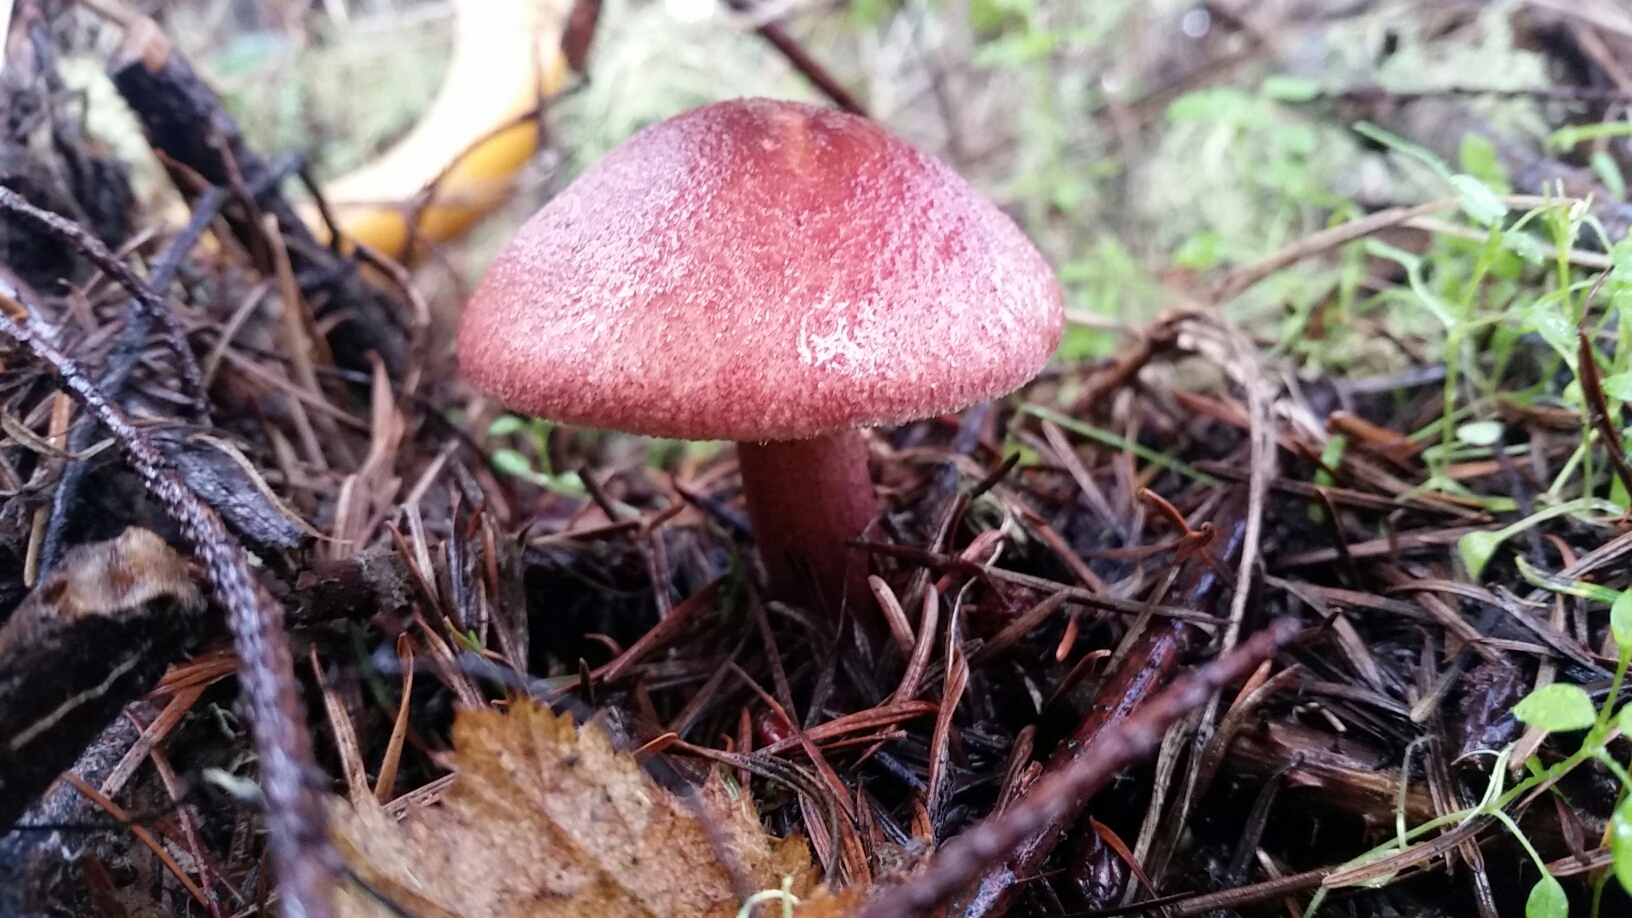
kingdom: Fungi
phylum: Basidiomycota
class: Agaricomycetes
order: Agaricales
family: Tricholomataceae
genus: Tricholomopsis
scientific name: Tricholomopsis rutilans
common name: Plums and custard
